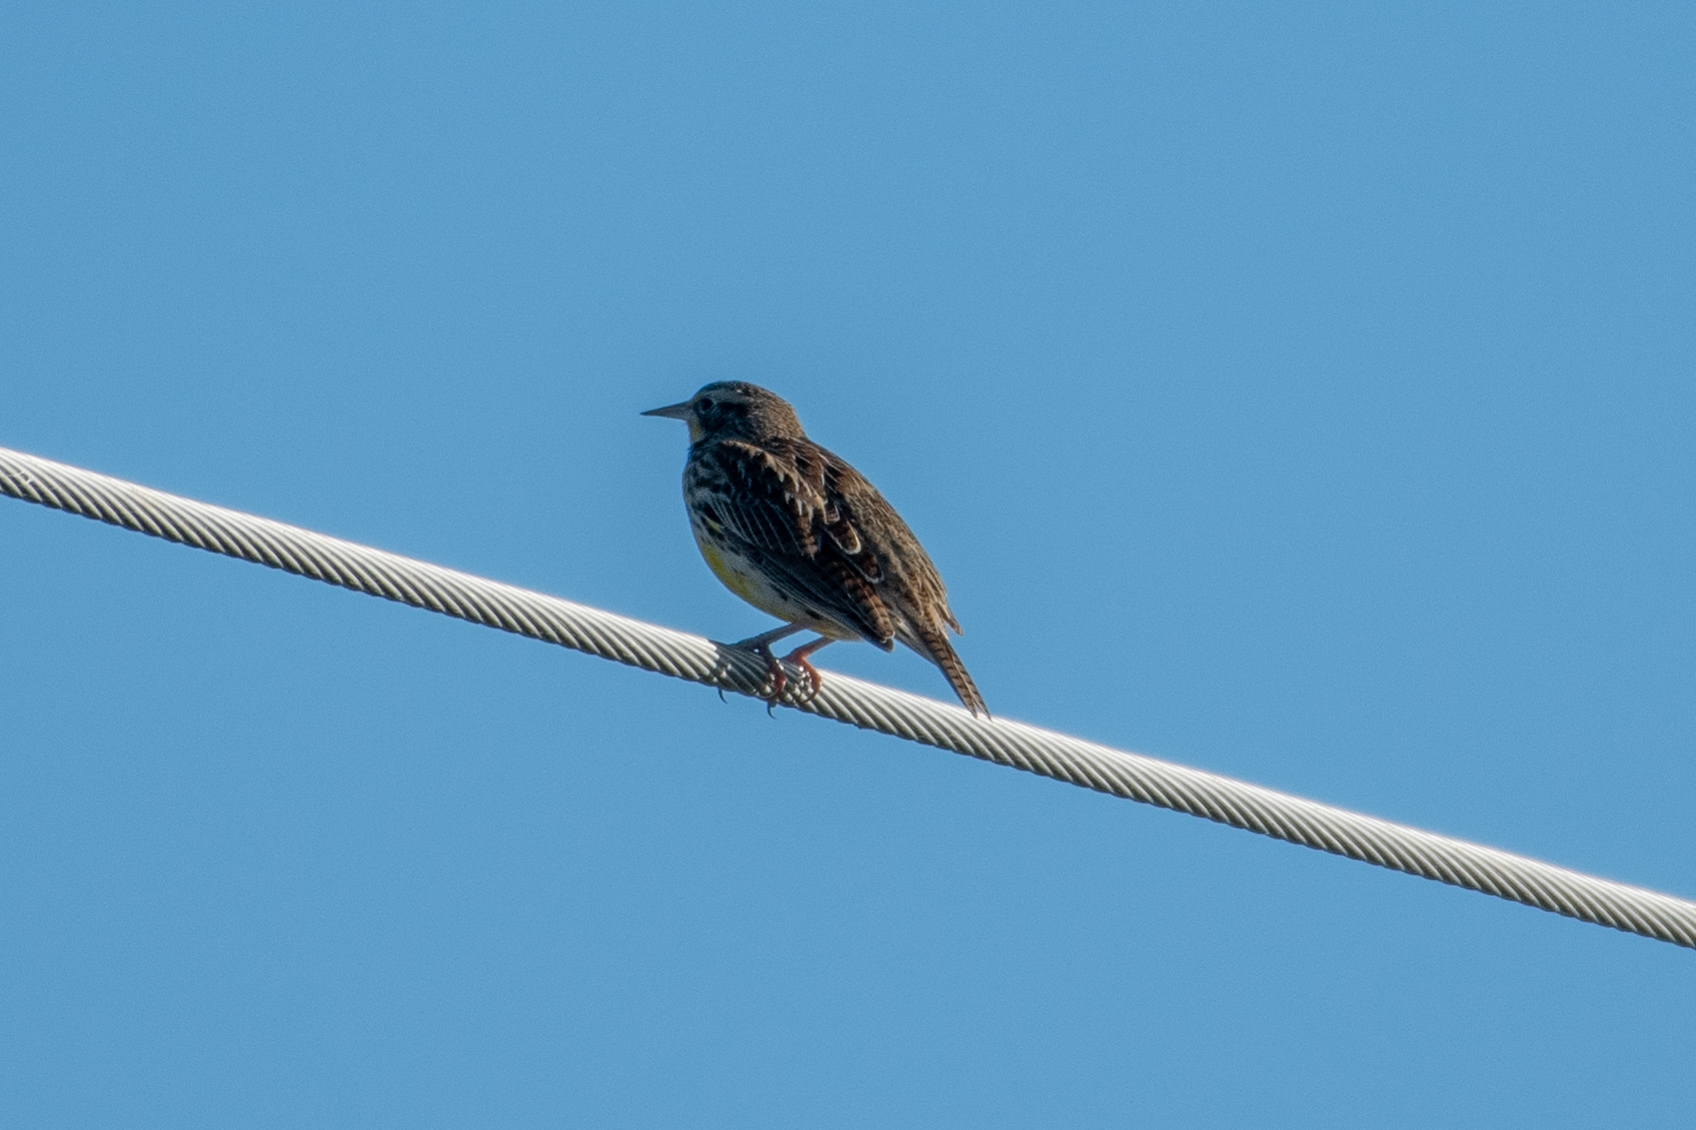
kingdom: Animalia
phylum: Chordata
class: Aves
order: Passeriformes
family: Icteridae
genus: Sturnella
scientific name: Sturnella neglecta
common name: Western meadowlark
